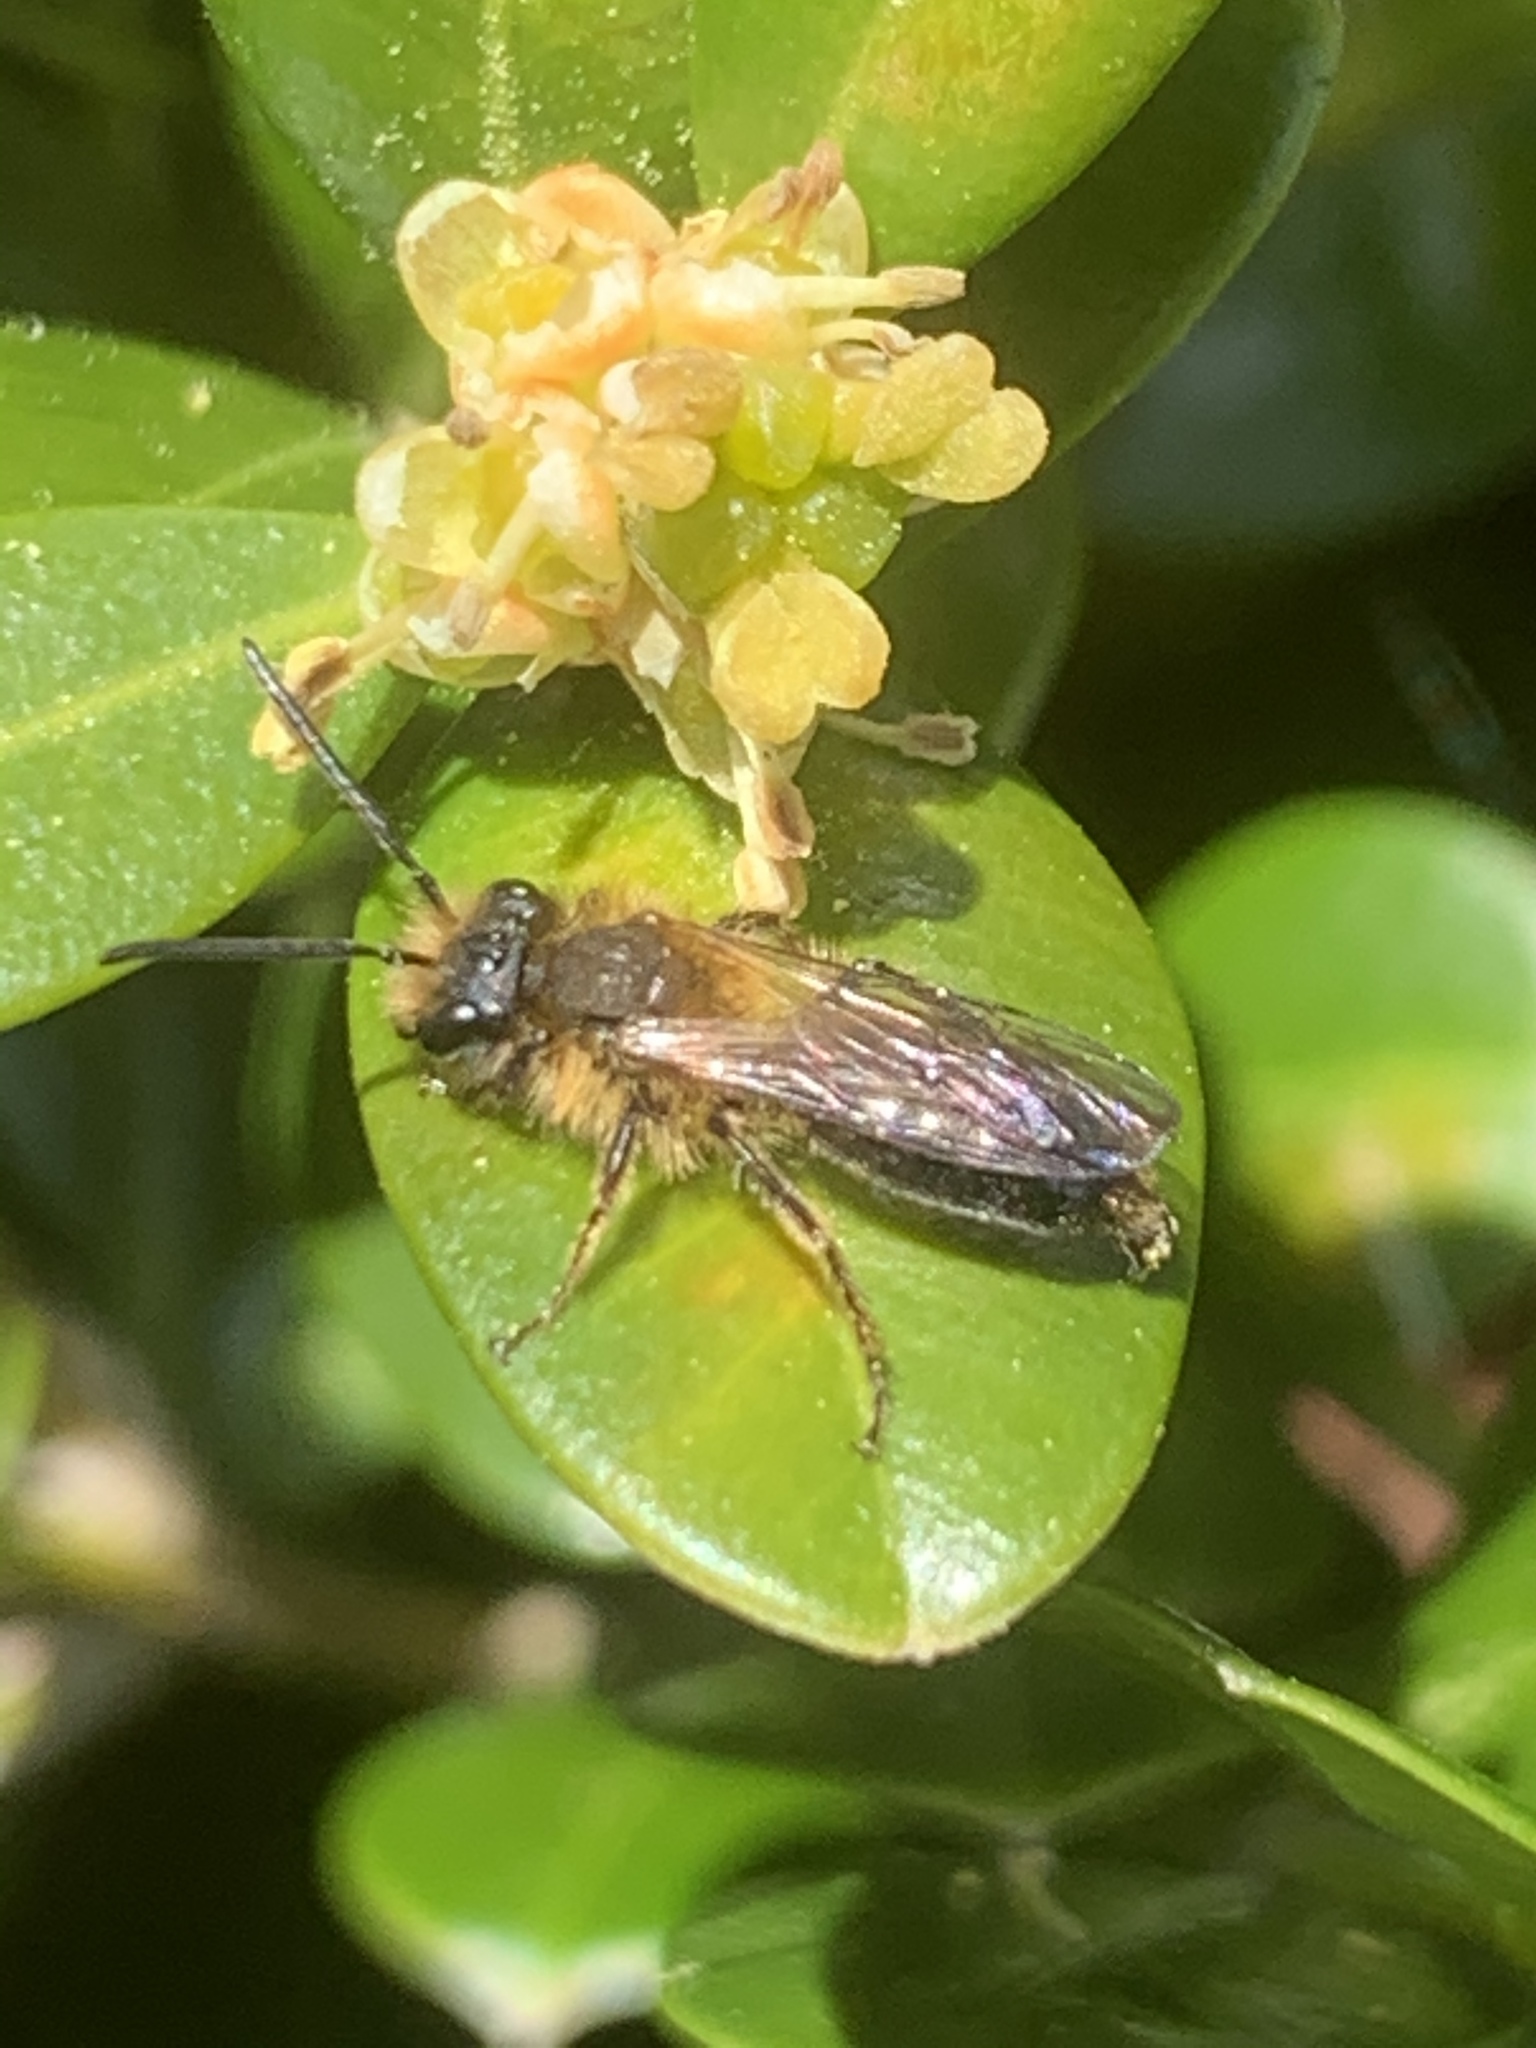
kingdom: Animalia
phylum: Arthropoda
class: Insecta
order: Hymenoptera
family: Andrenidae
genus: Andrena
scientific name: Andrena
